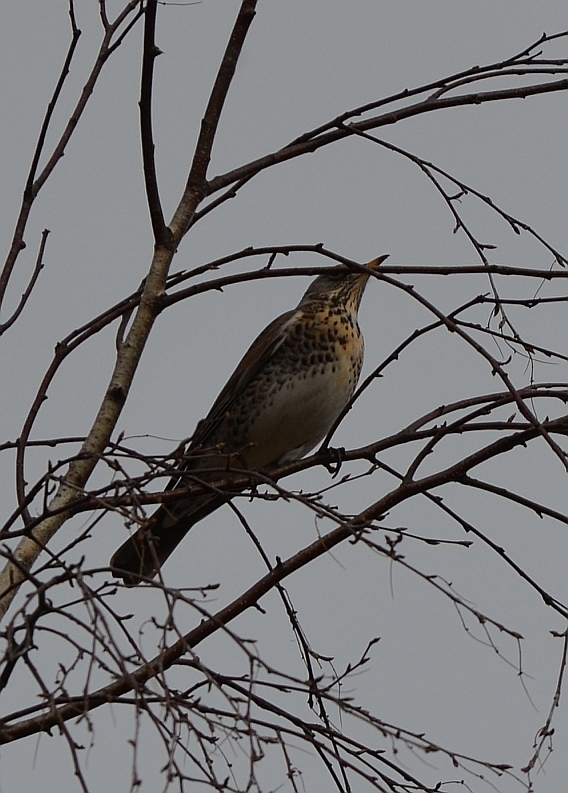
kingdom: Animalia
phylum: Chordata
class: Aves
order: Passeriformes
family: Turdidae
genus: Turdus
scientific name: Turdus pilaris
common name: Fieldfare
